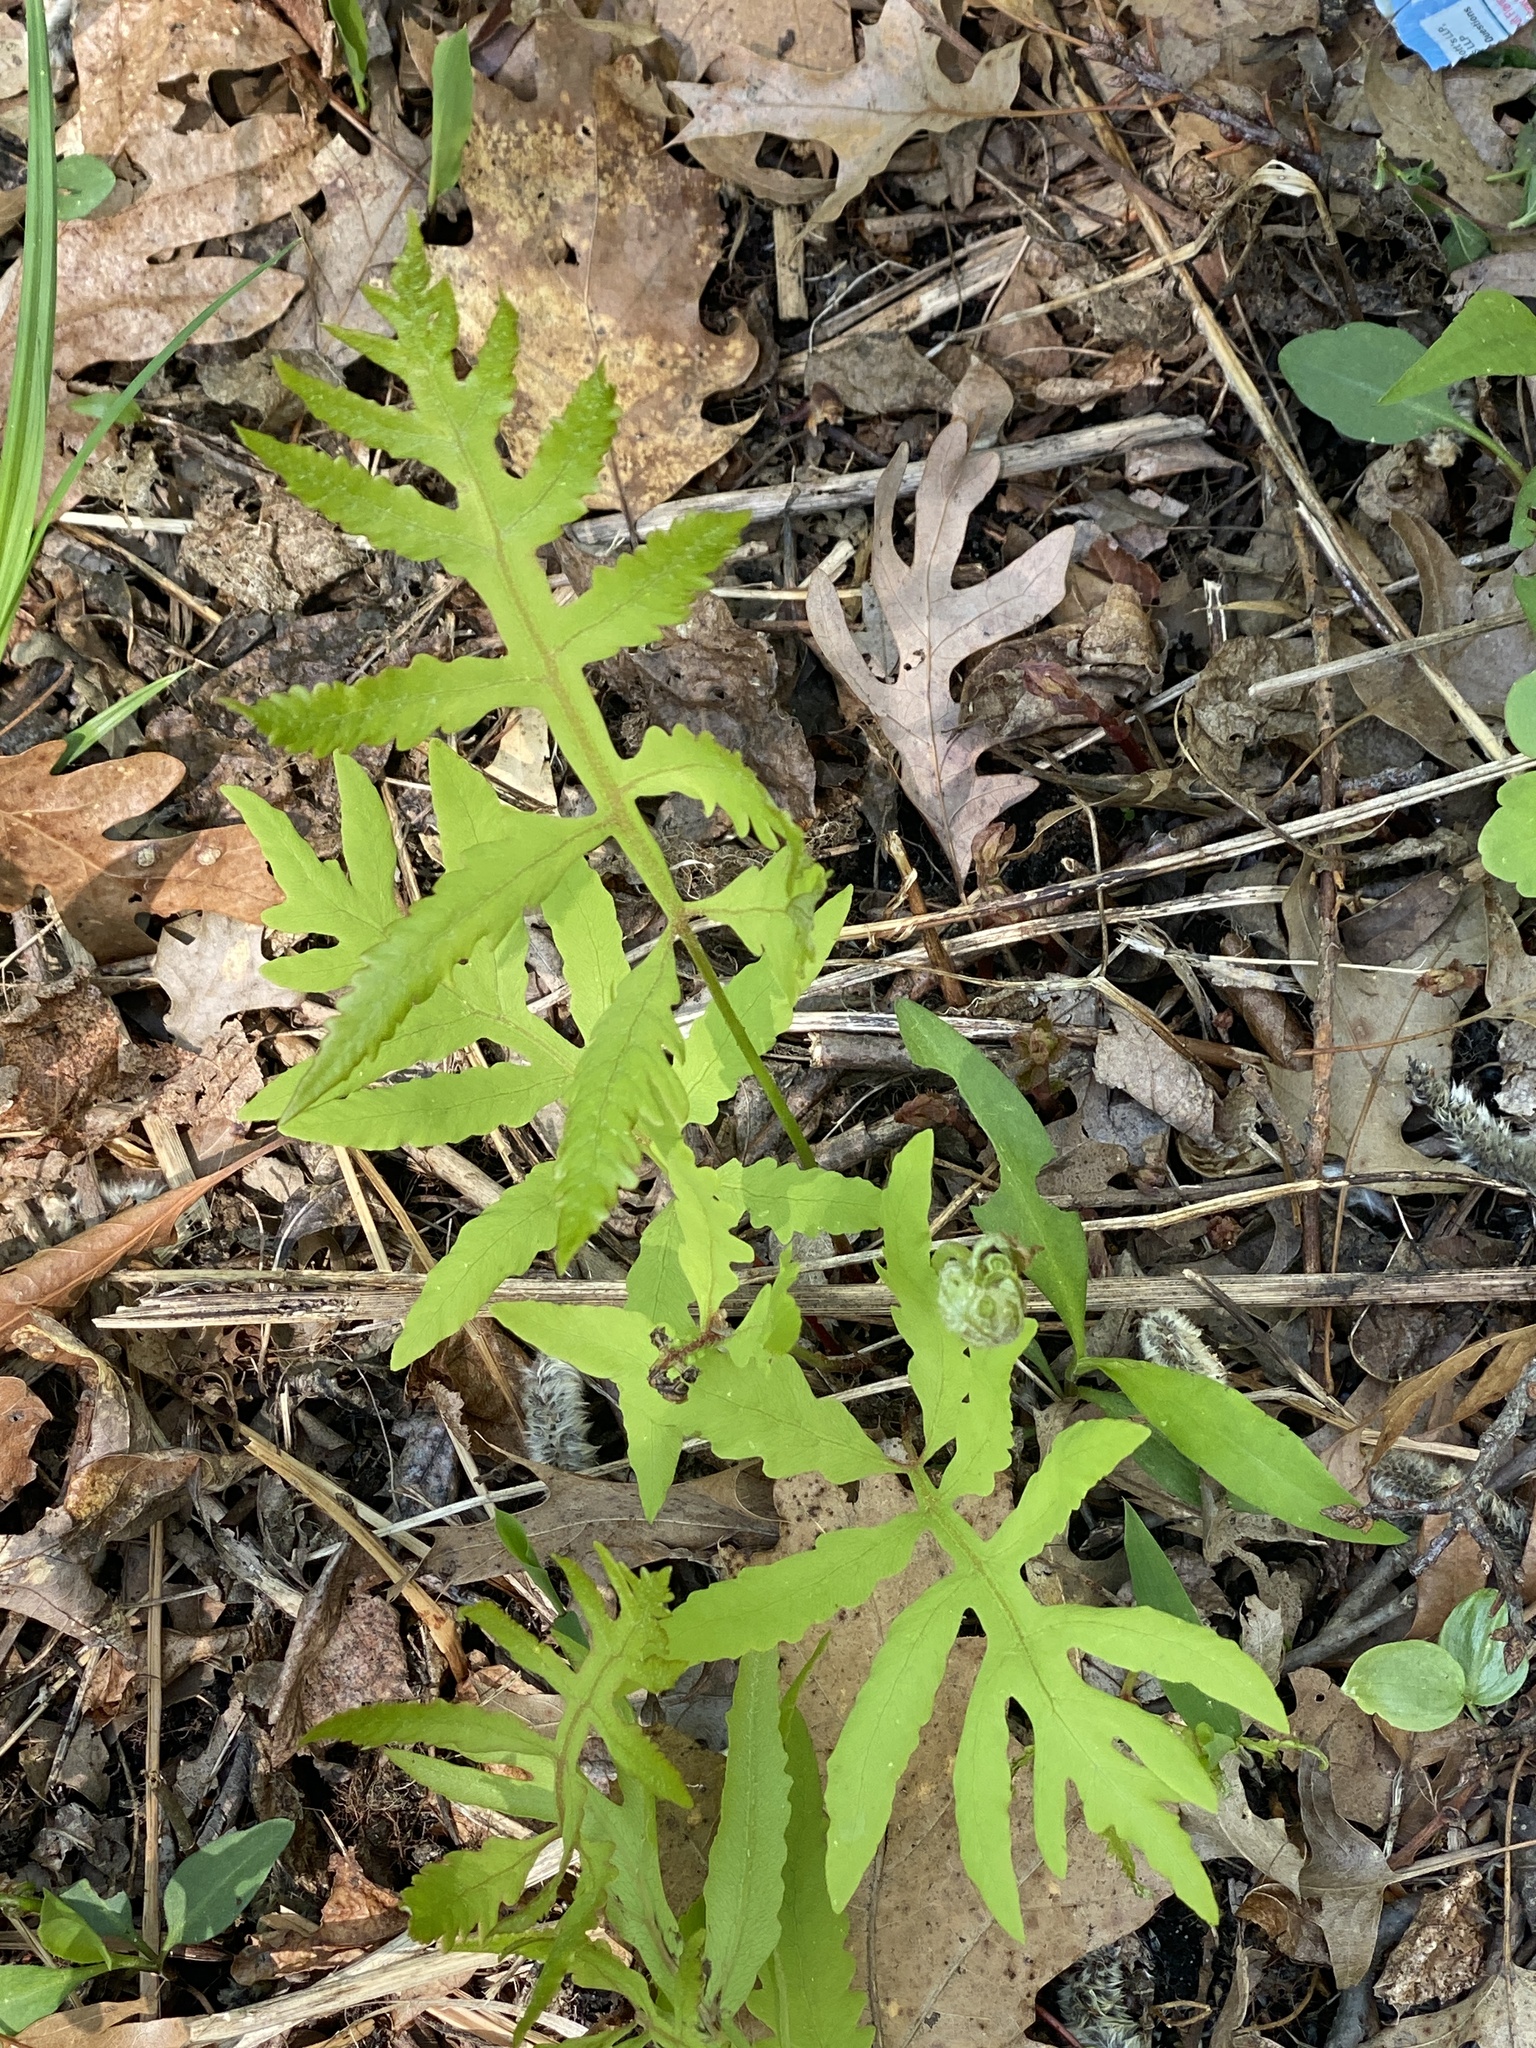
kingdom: Plantae
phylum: Tracheophyta
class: Polypodiopsida
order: Polypodiales
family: Onocleaceae
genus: Onoclea
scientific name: Onoclea sensibilis
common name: Sensitive fern
